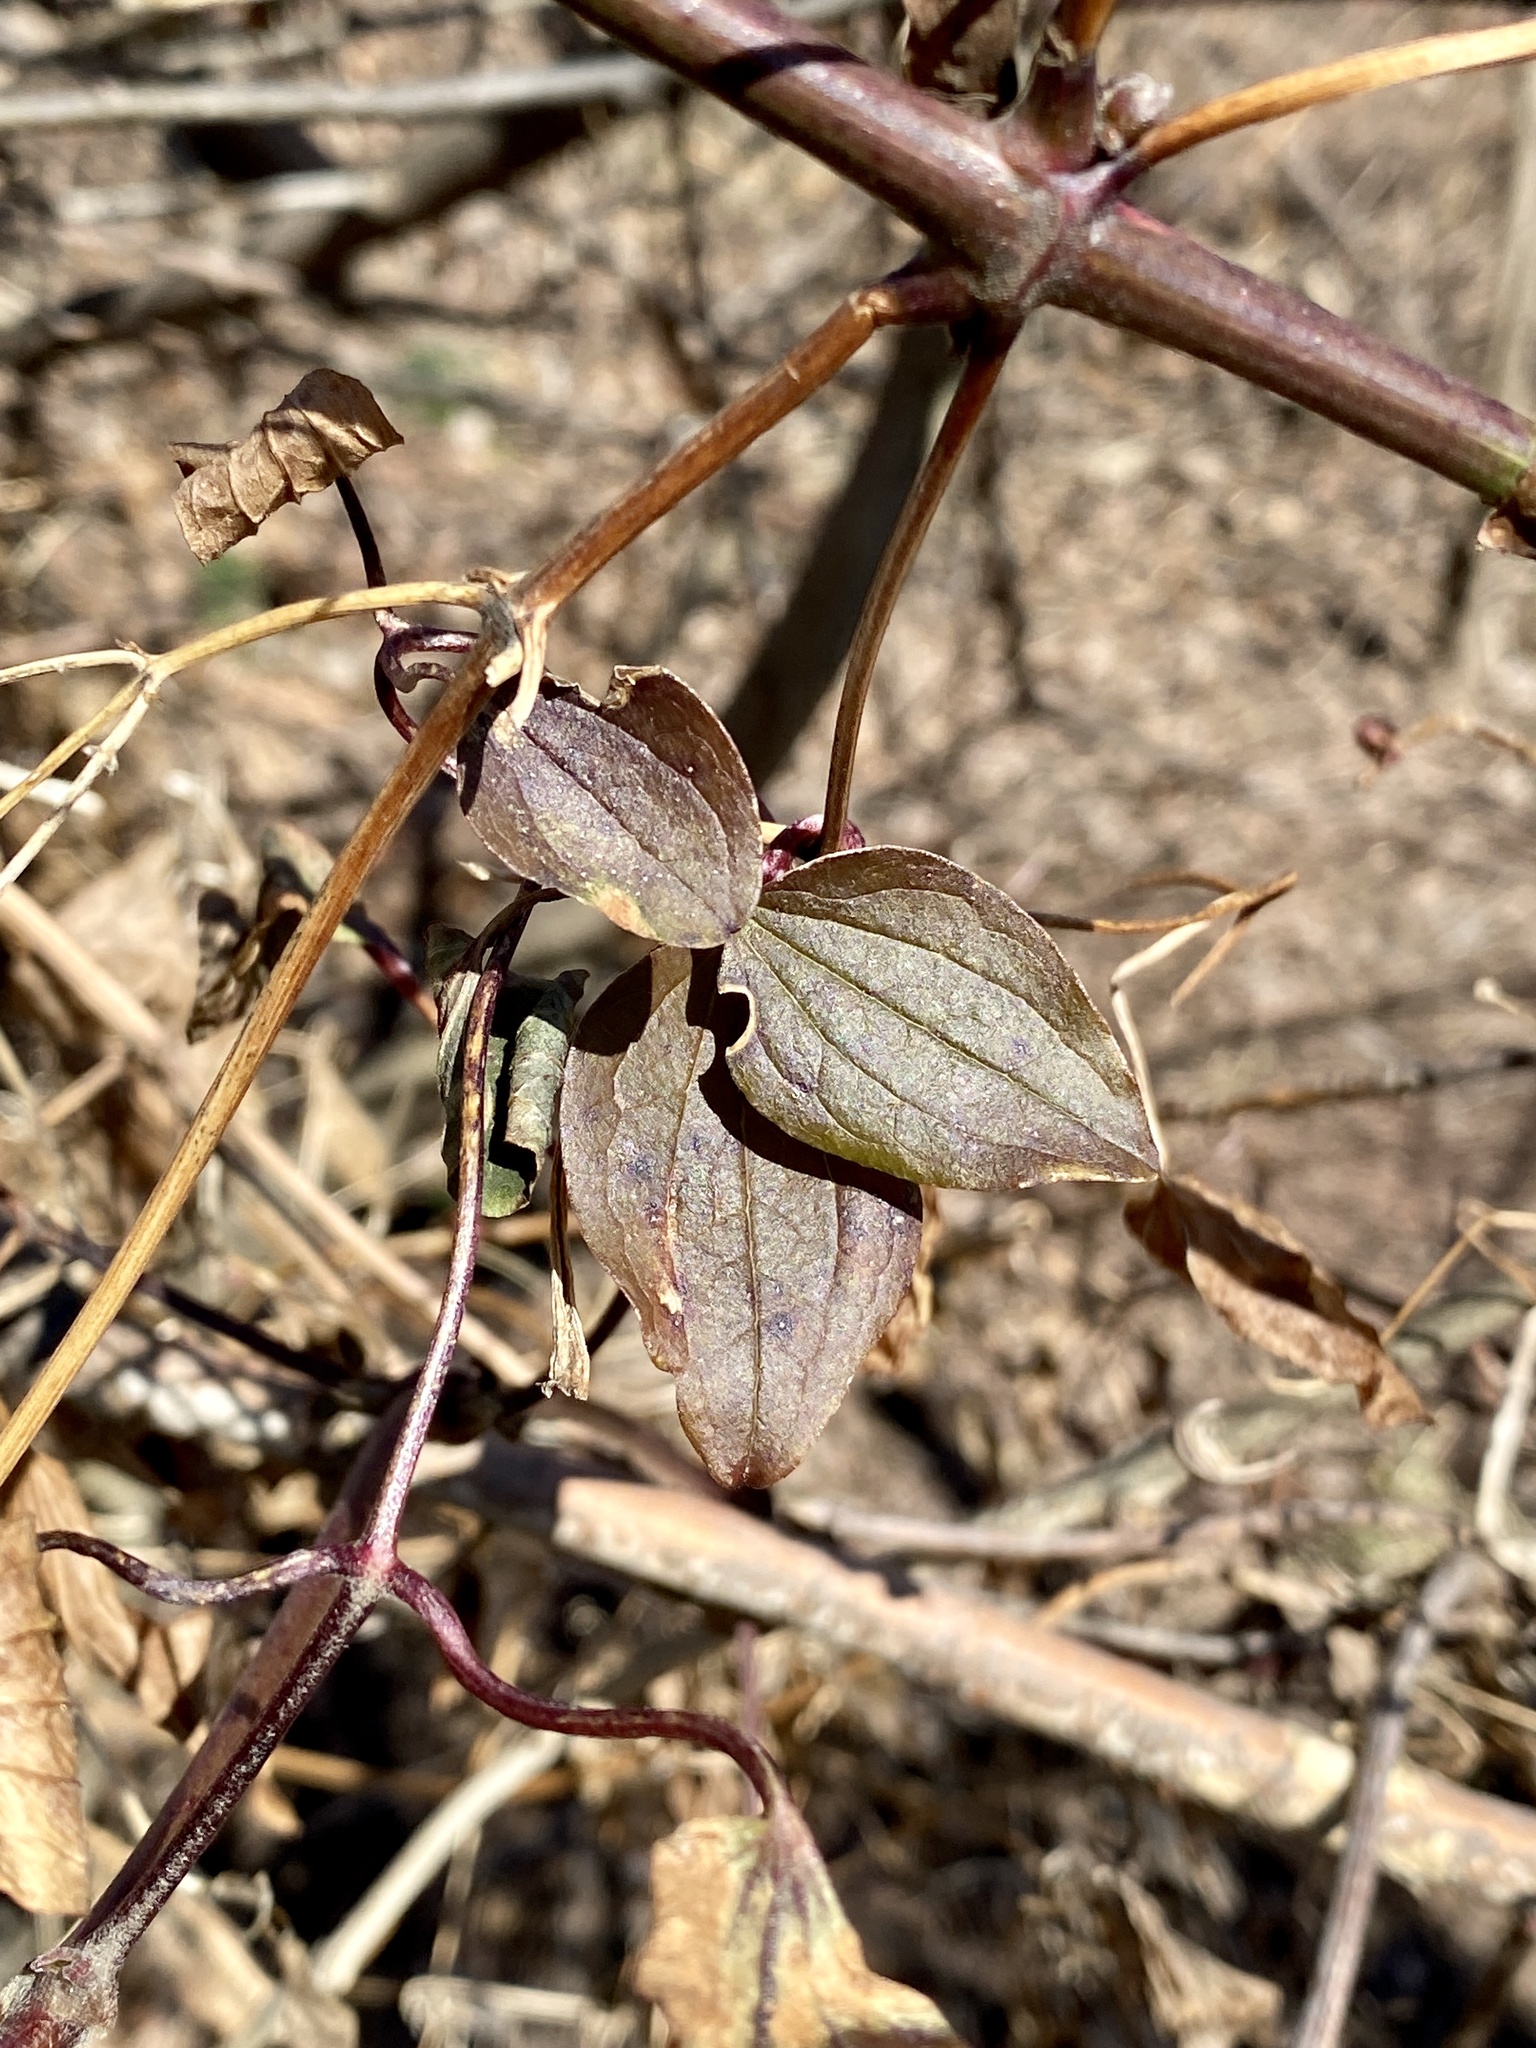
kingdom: Plantae
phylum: Tracheophyta
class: Magnoliopsida
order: Ranunculales
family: Ranunculaceae
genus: Clematis
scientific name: Clematis terniflora
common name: Sweet autumn clematis
